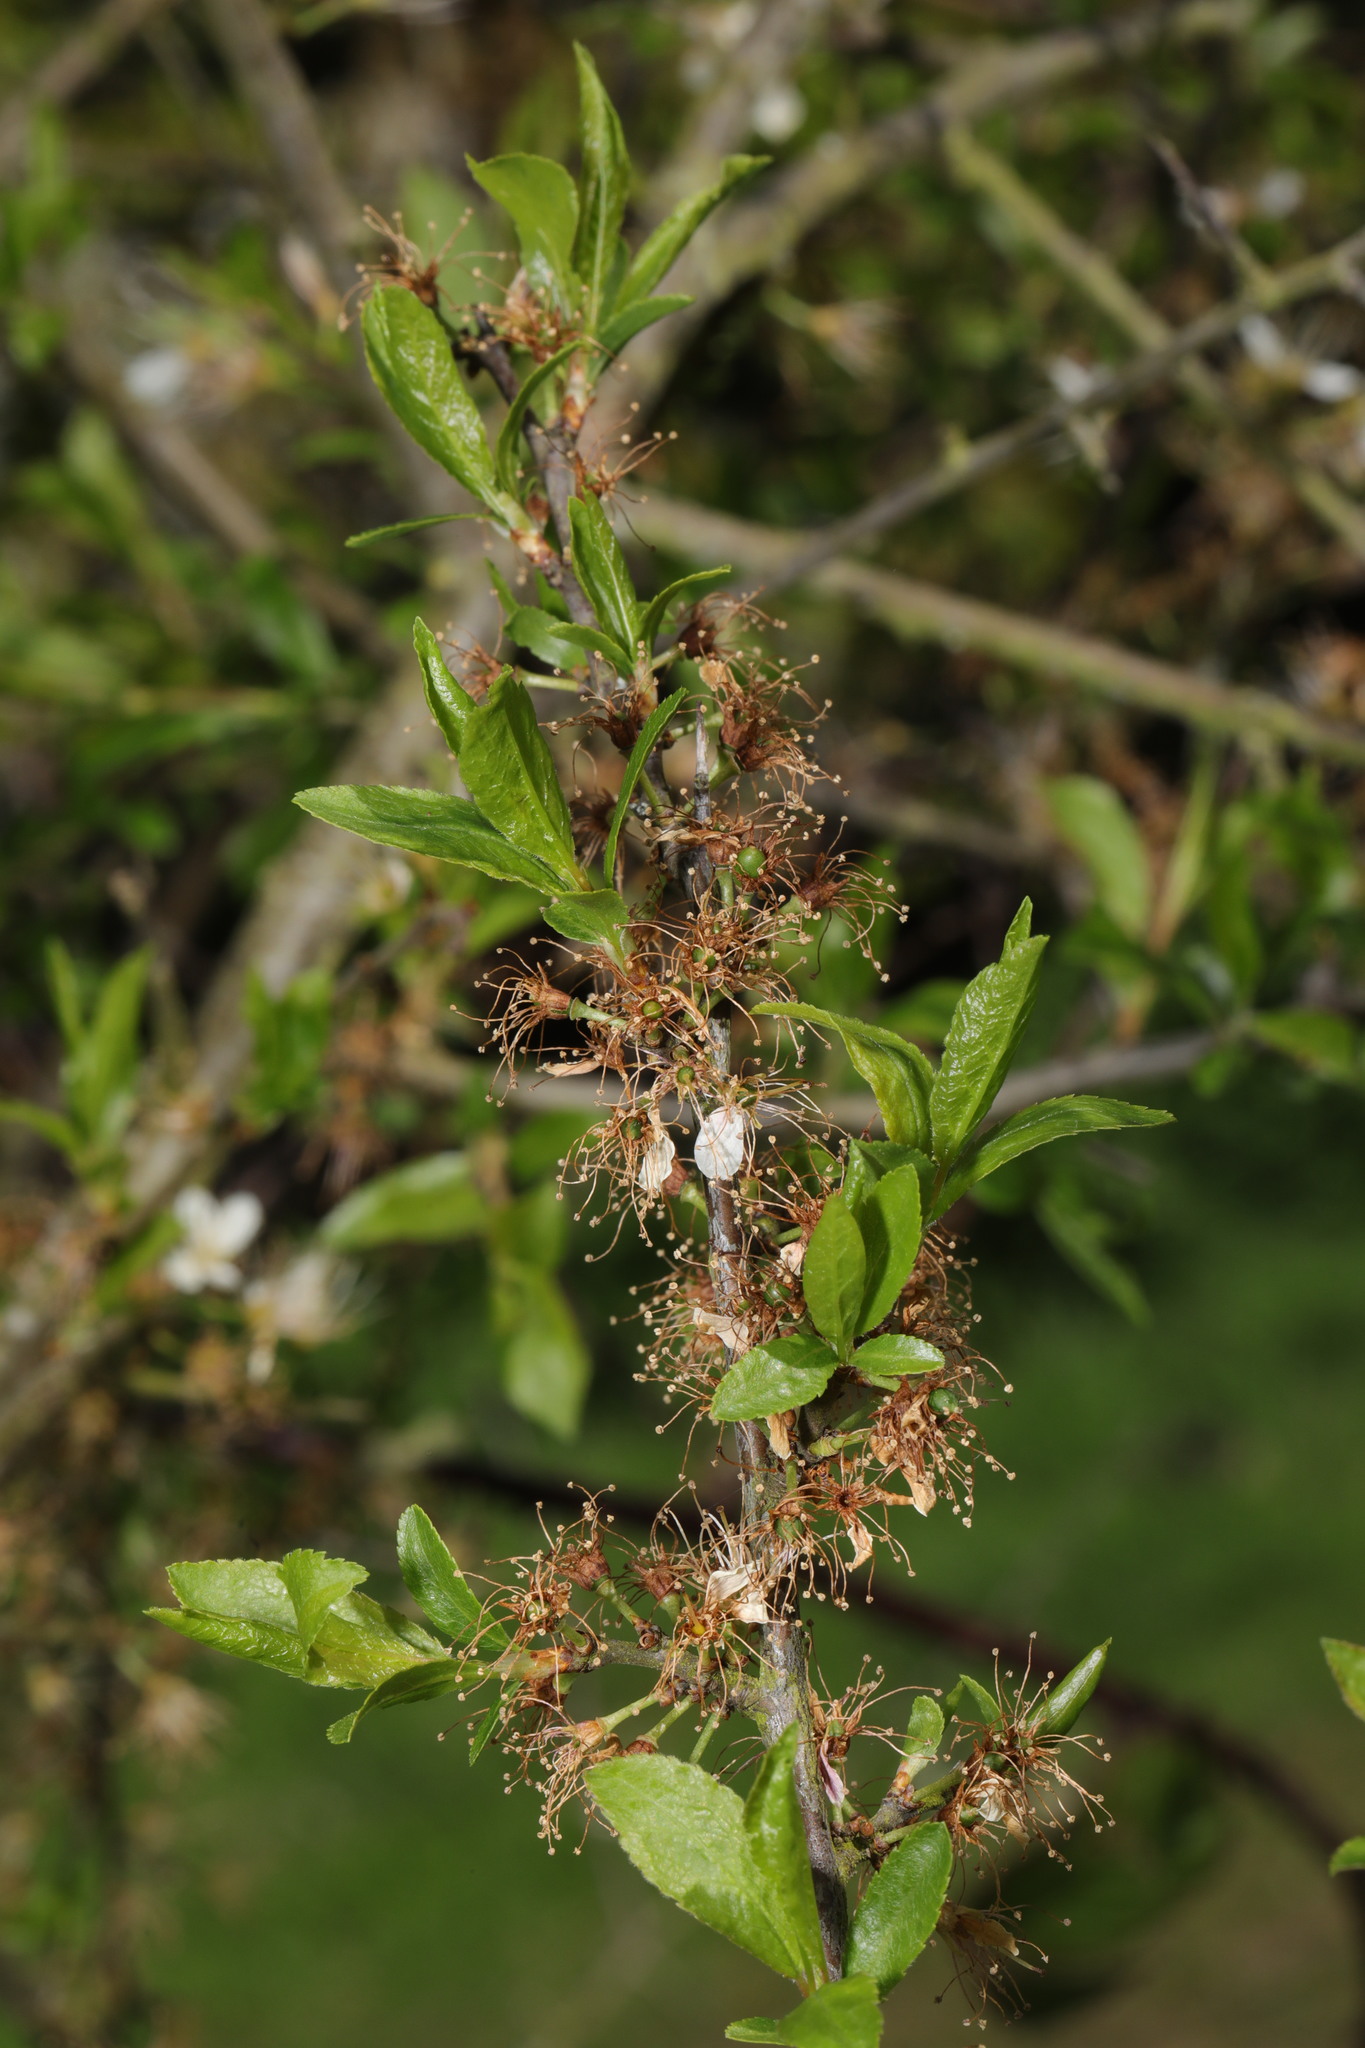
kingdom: Plantae
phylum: Tracheophyta
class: Magnoliopsida
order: Rosales
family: Rosaceae
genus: Prunus
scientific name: Prunus spinosa
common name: Blackthorn
